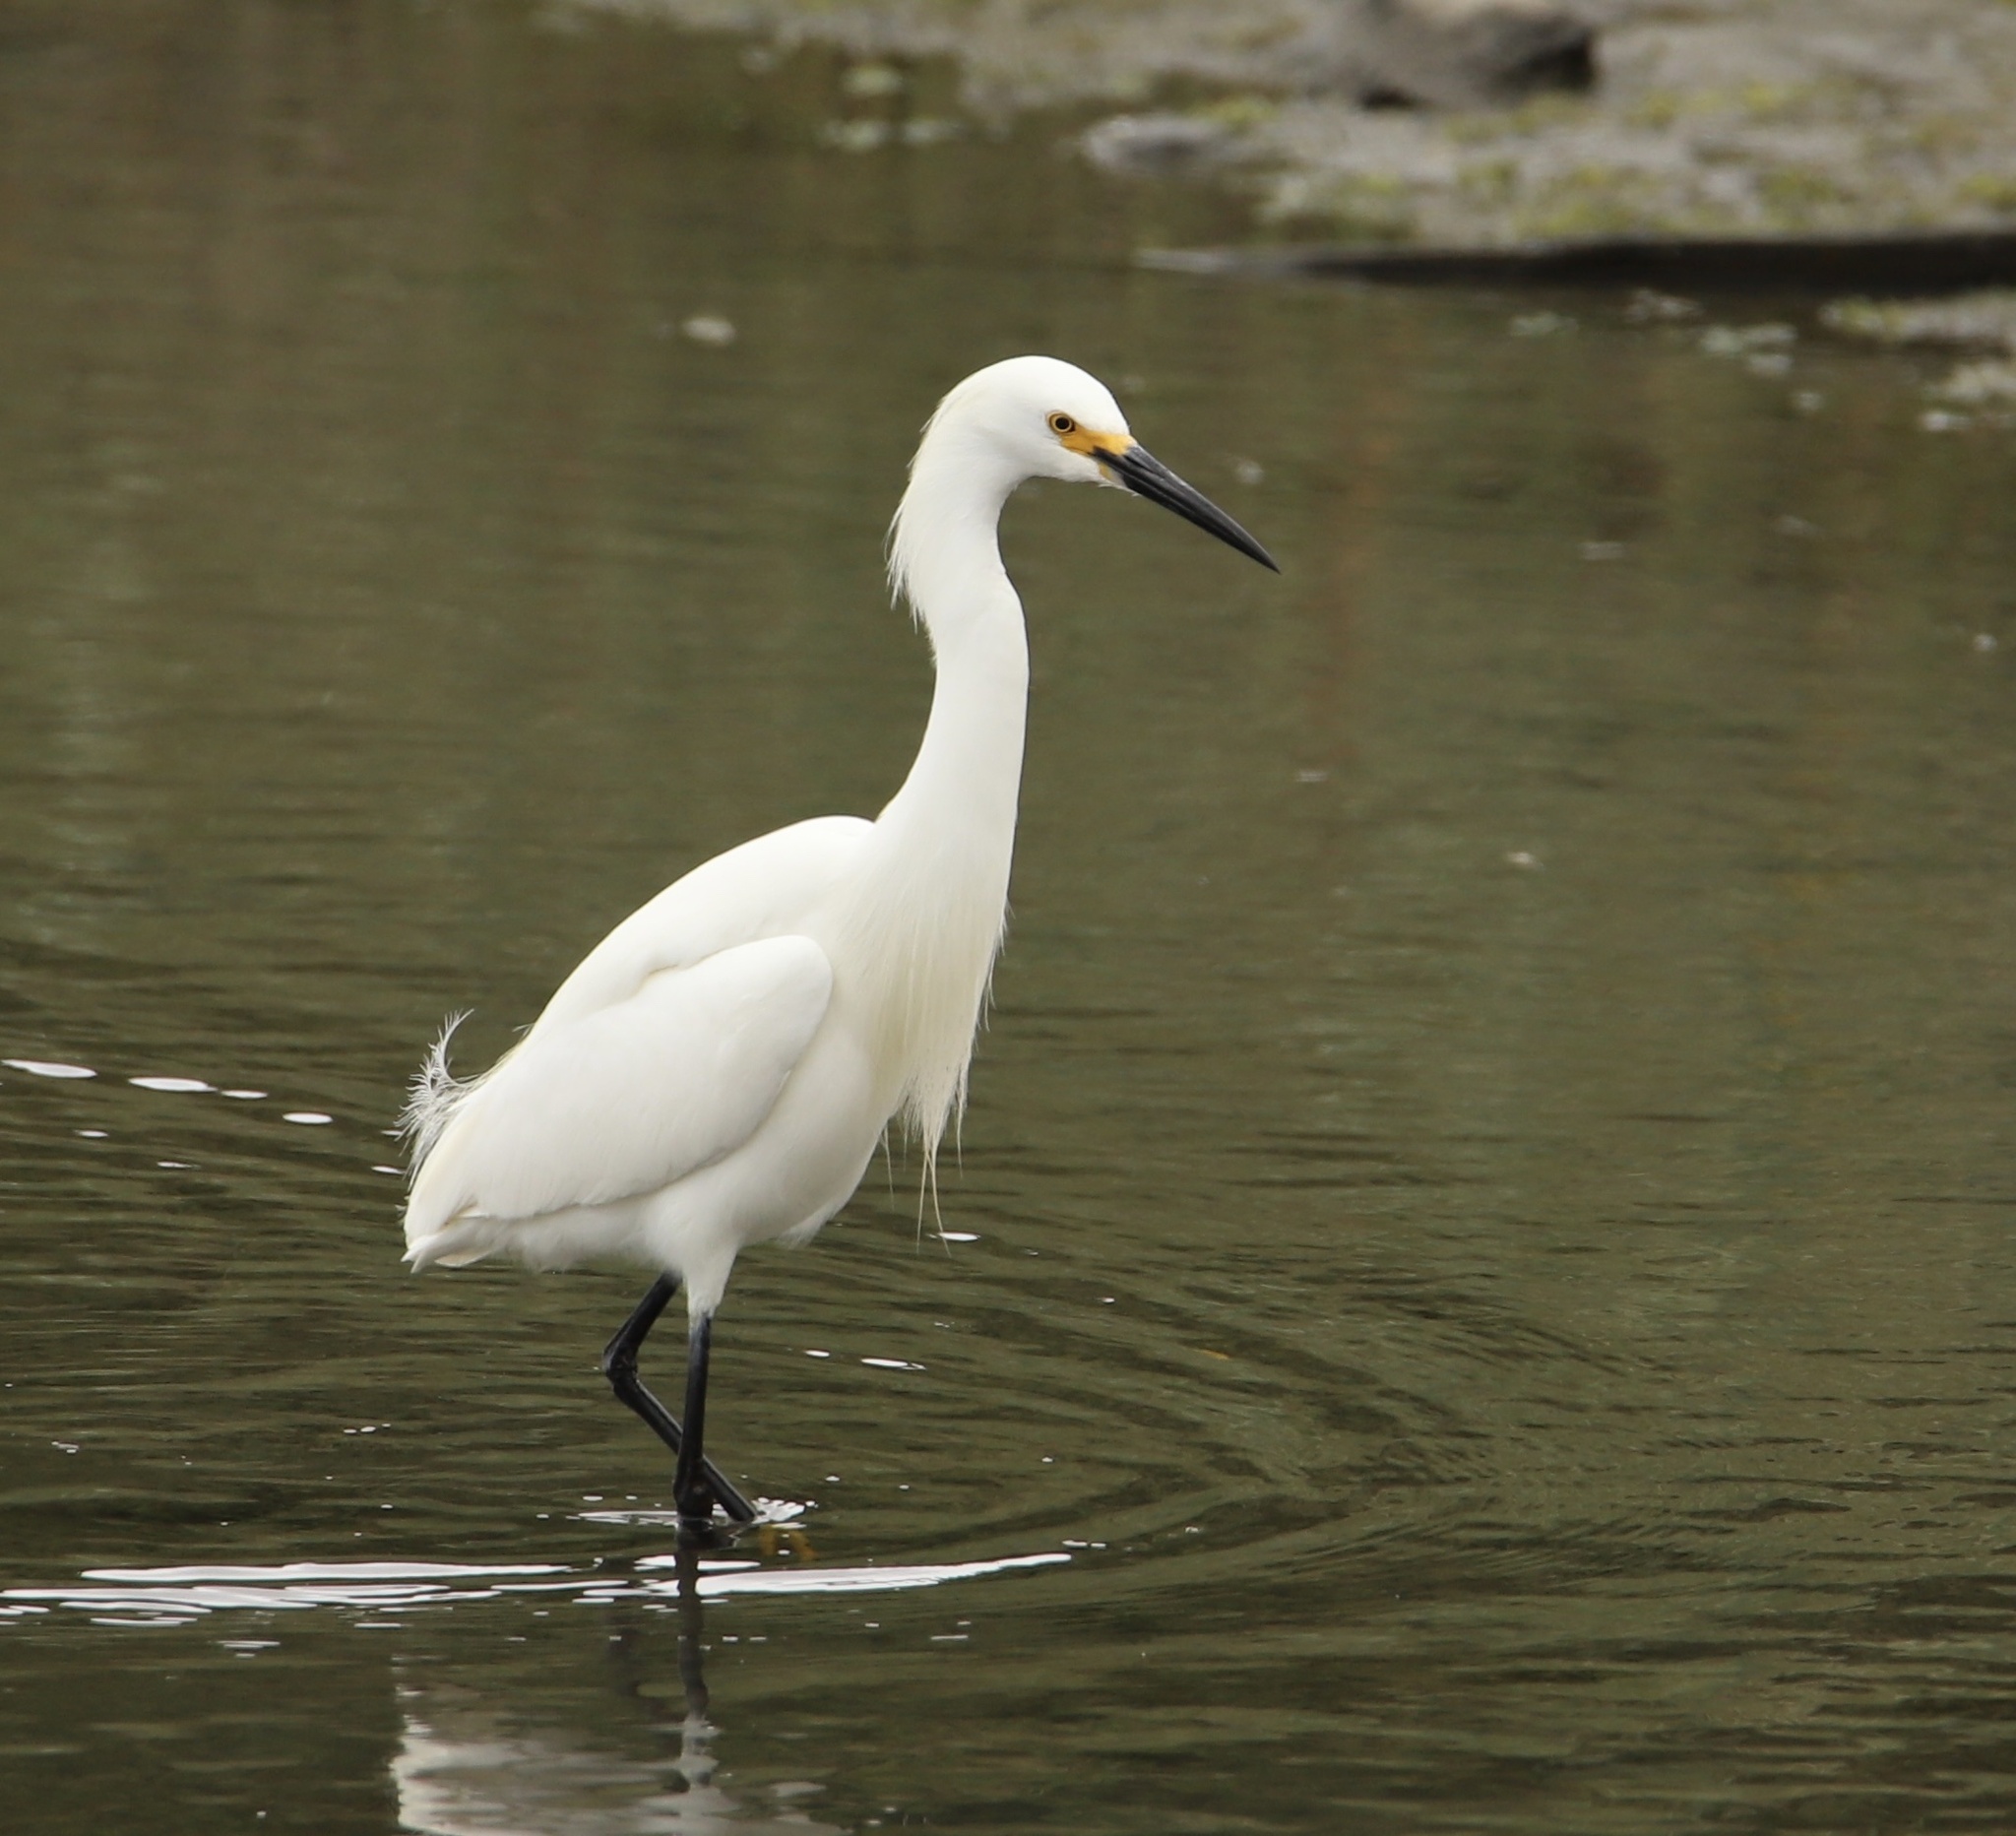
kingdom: Animalia
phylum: Chordata
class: Aves
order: Pelecaniformes
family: Ardeidae
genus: Egretta
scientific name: Egretta thula
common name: Snowy egret
